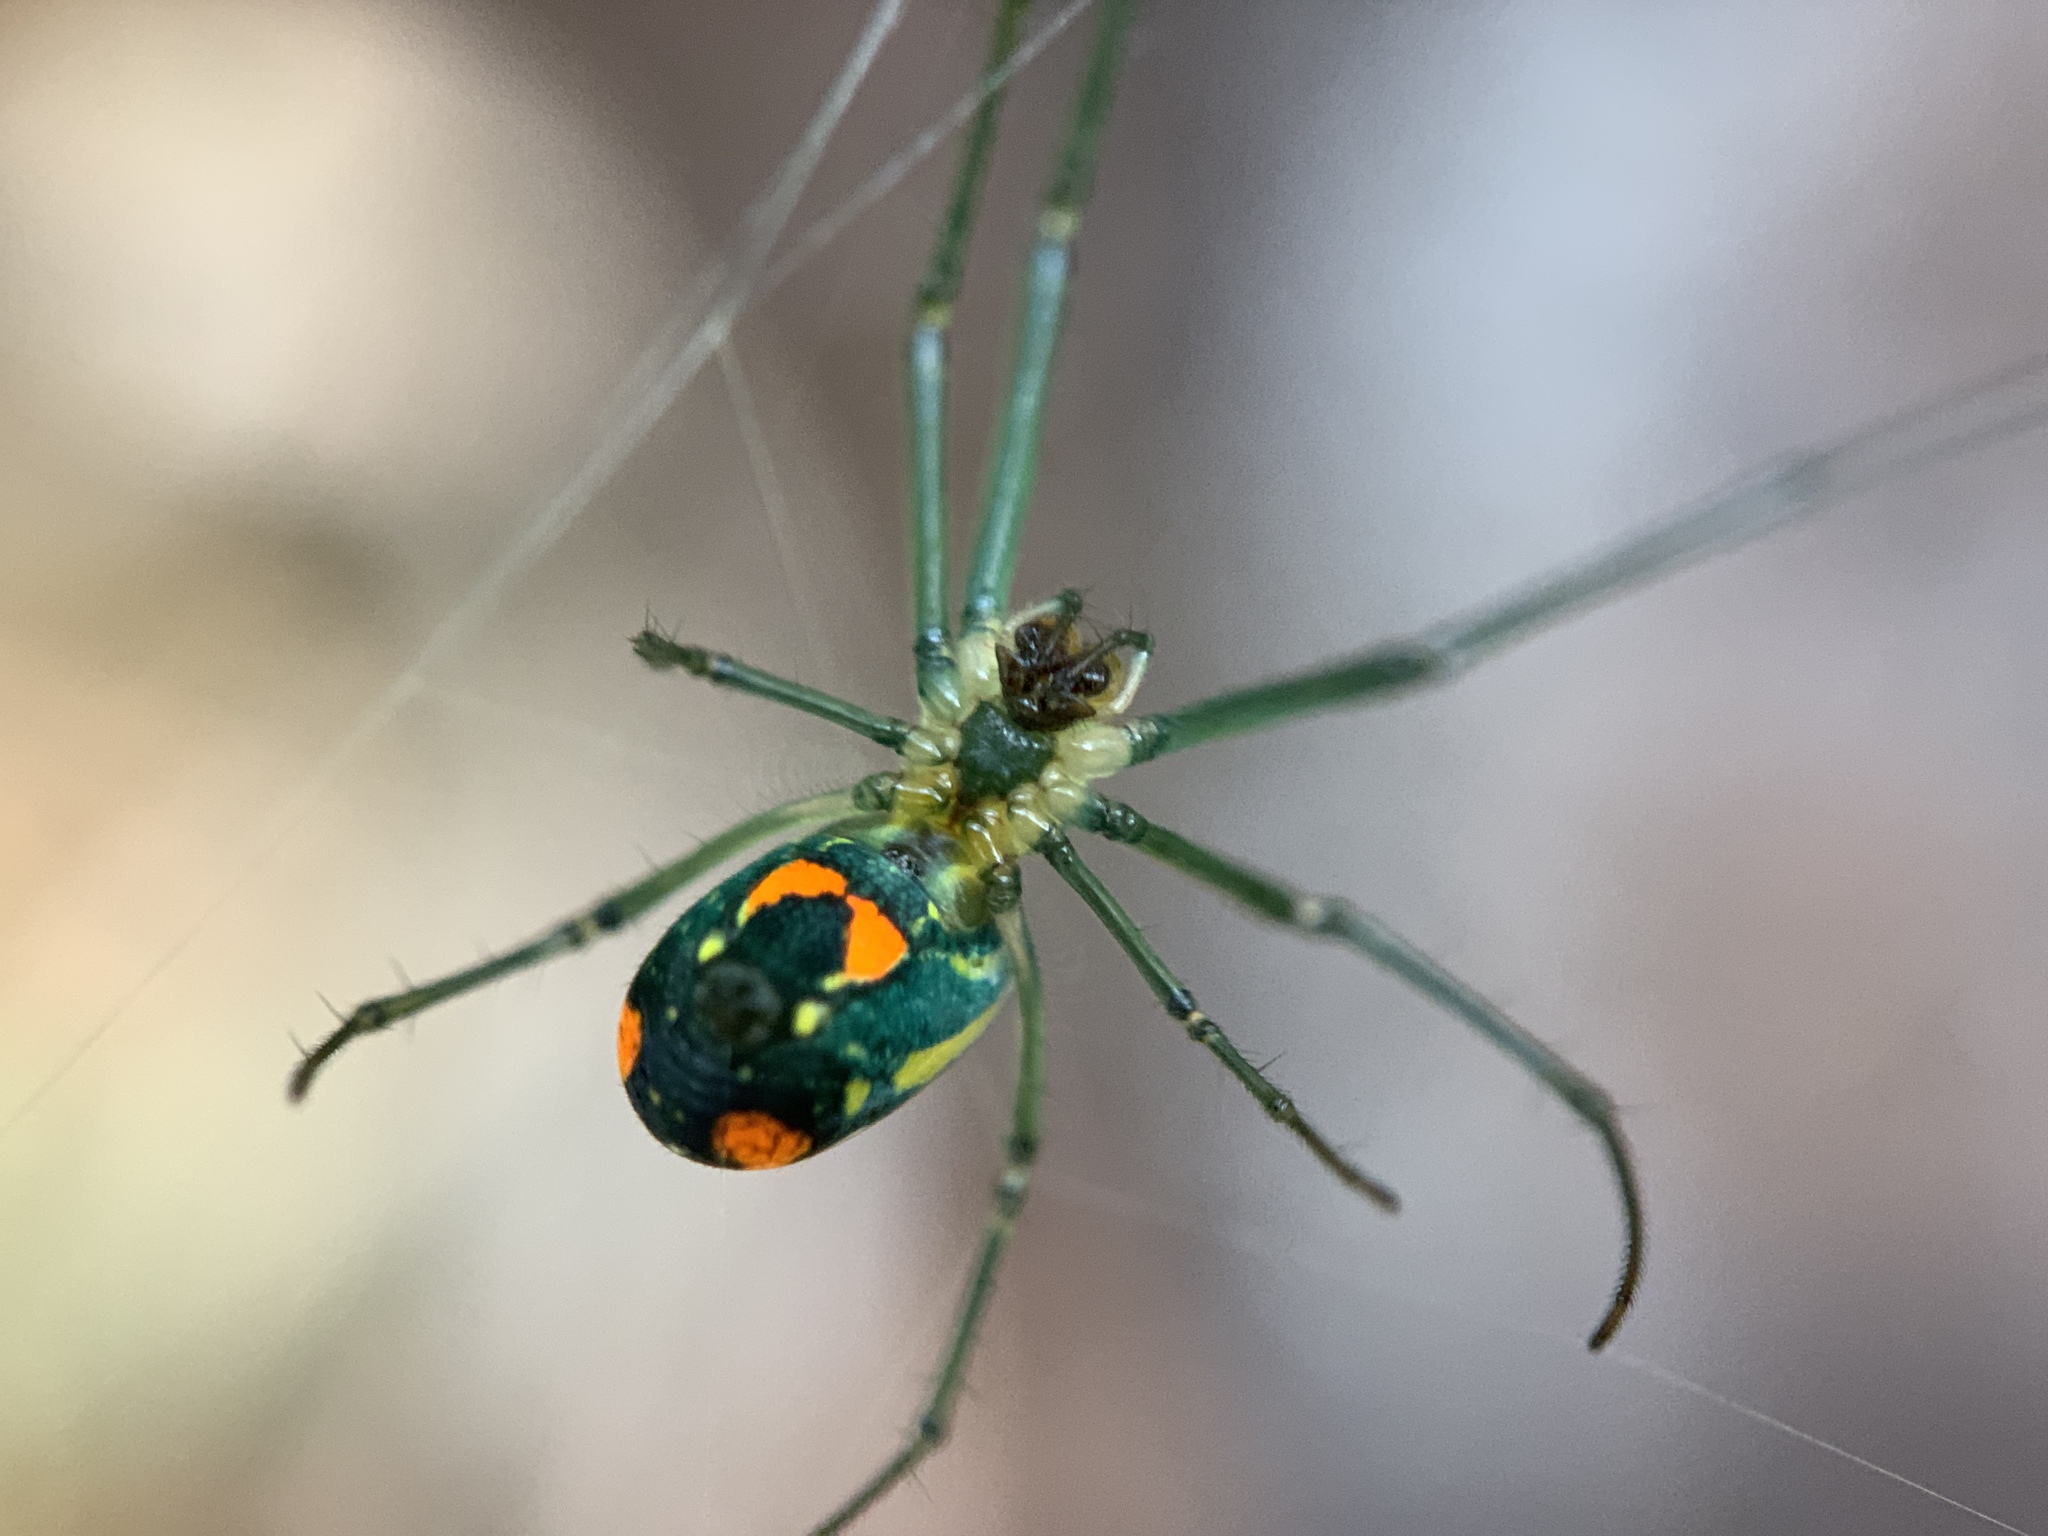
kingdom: Animalia
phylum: Arthropoda
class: Arachnida
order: Araneae
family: Tetragnathidae
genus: Leucauge
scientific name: Leucauge argyrobapta
